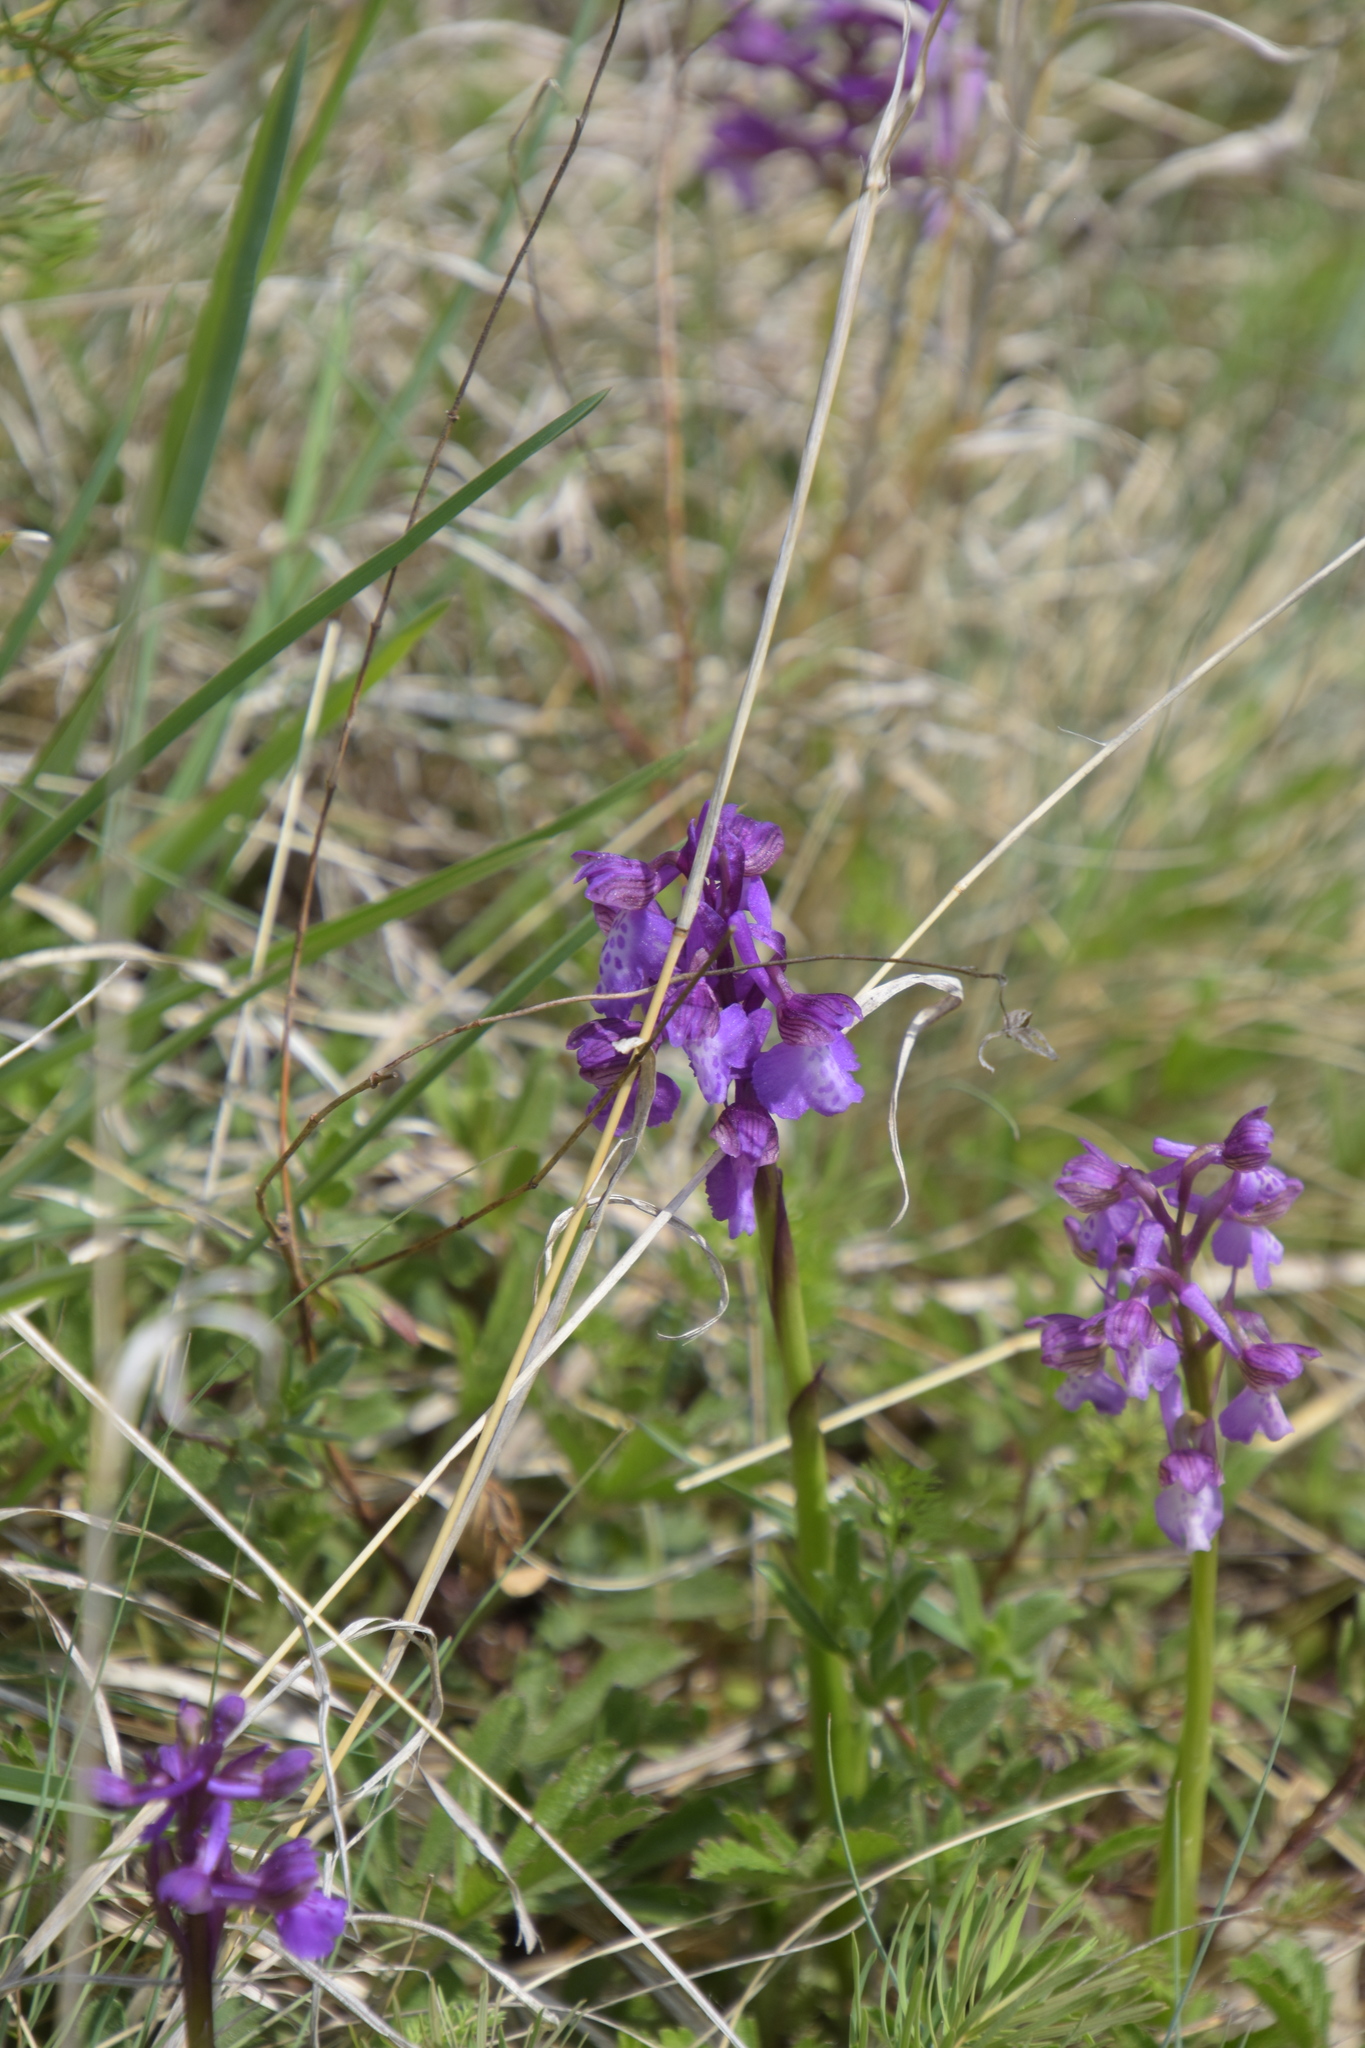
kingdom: Plantae
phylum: Tracheophyta
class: Liliopsida
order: Asparagales
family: Orchidaceae
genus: Anacamptis
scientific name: Anacamptis morio
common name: Green-winged orchid
